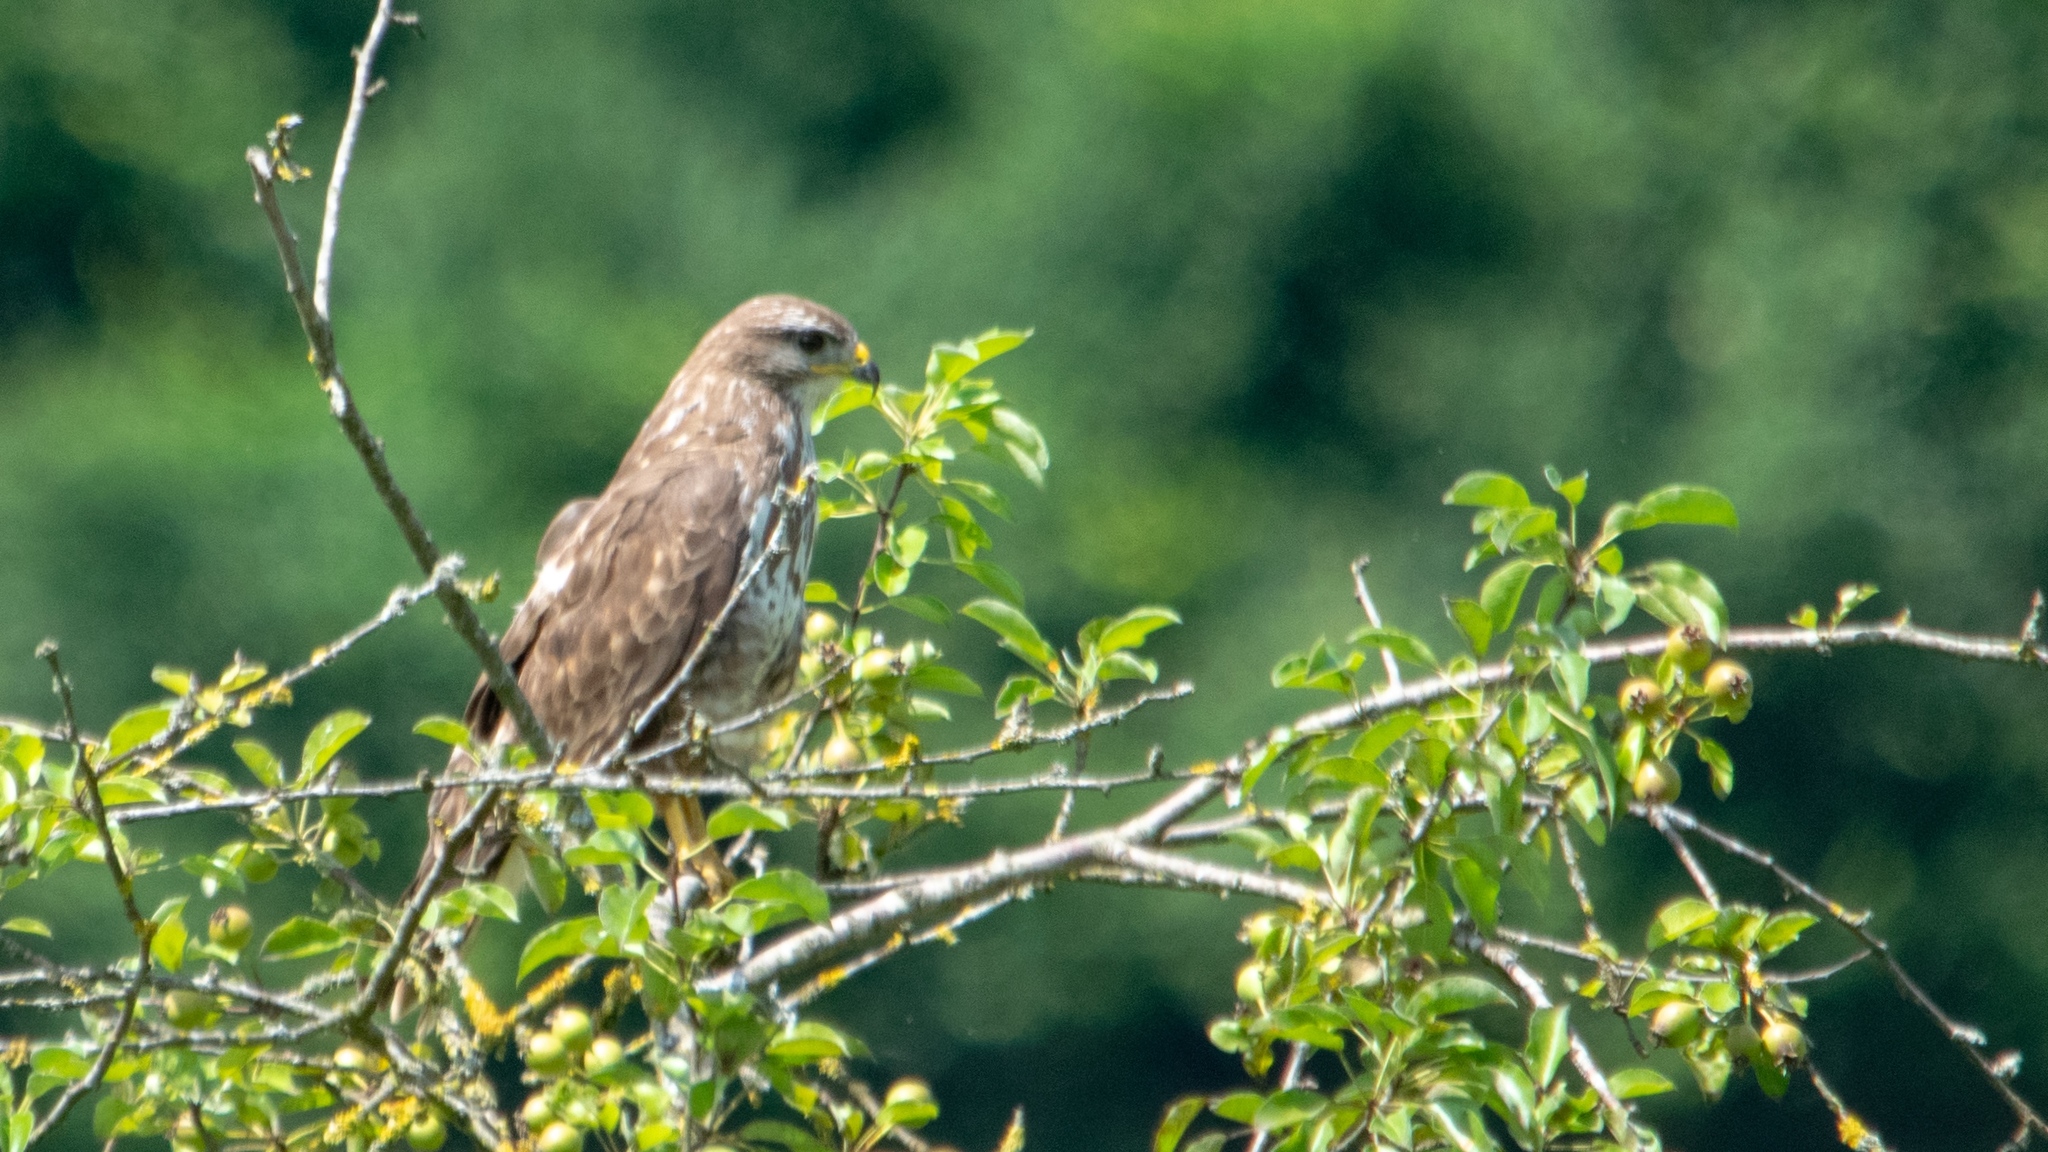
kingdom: Animalia
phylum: Chordata
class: Aves
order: Accipitriformes
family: Accipitridae
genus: Buteo
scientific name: Buteo buteo
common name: Common buzzard
